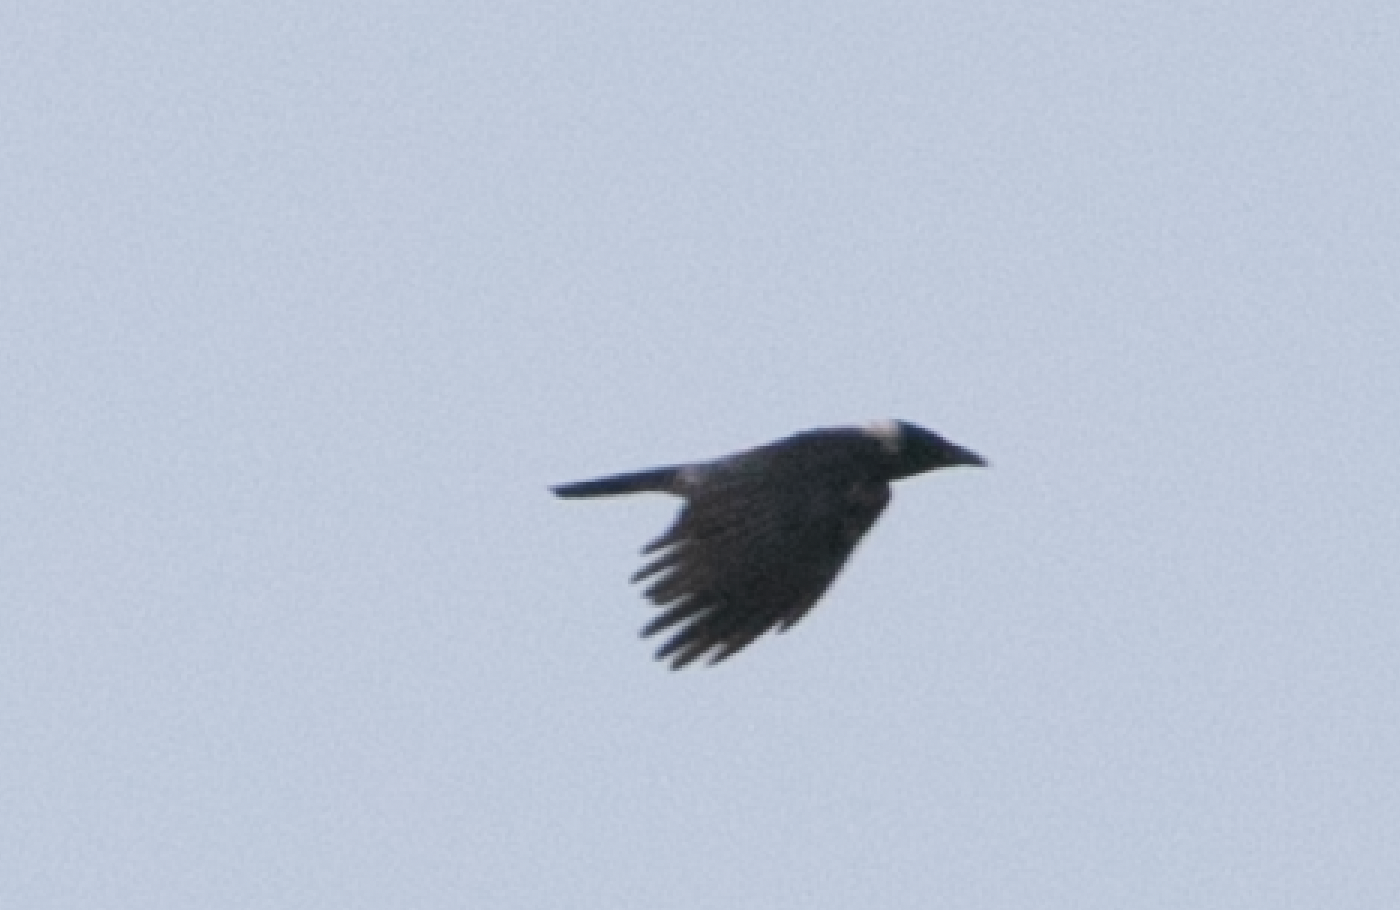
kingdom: Animalia
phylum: Chordata
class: Aves
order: Passeriformes
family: Corvidae
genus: Corvus
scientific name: Corvus cornix
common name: Hooded crow
